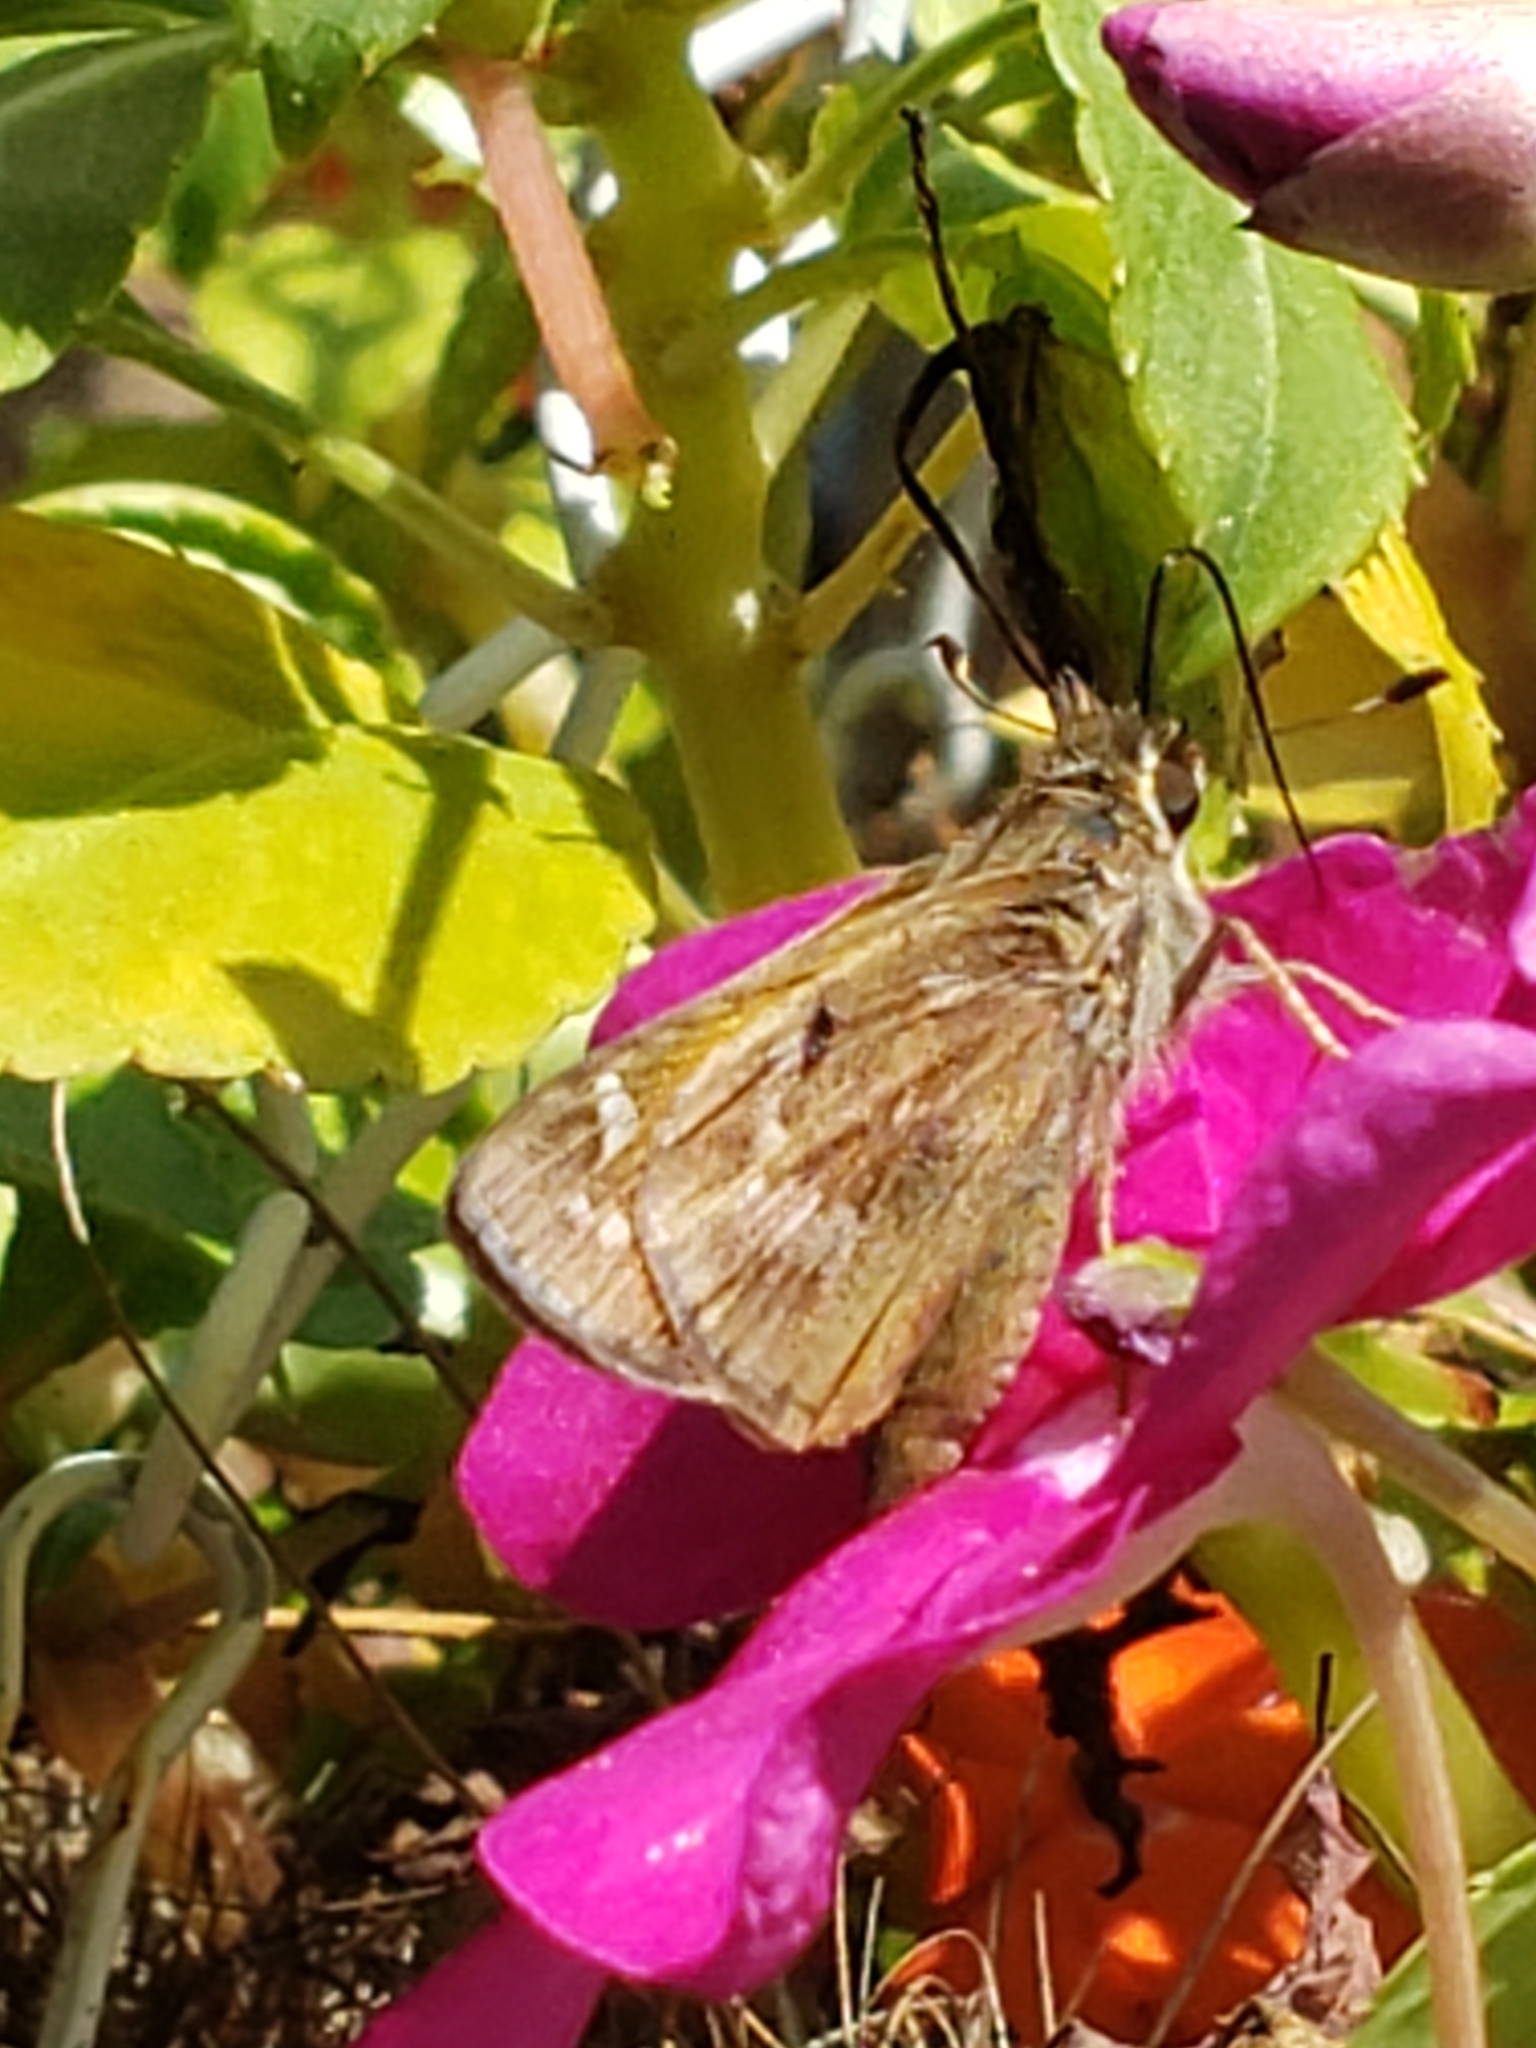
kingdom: Animalia
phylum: Arthropoda
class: Insecta
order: Lepidoptera
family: Hesperiidae
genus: Atalopedes
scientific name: Atalopedes
